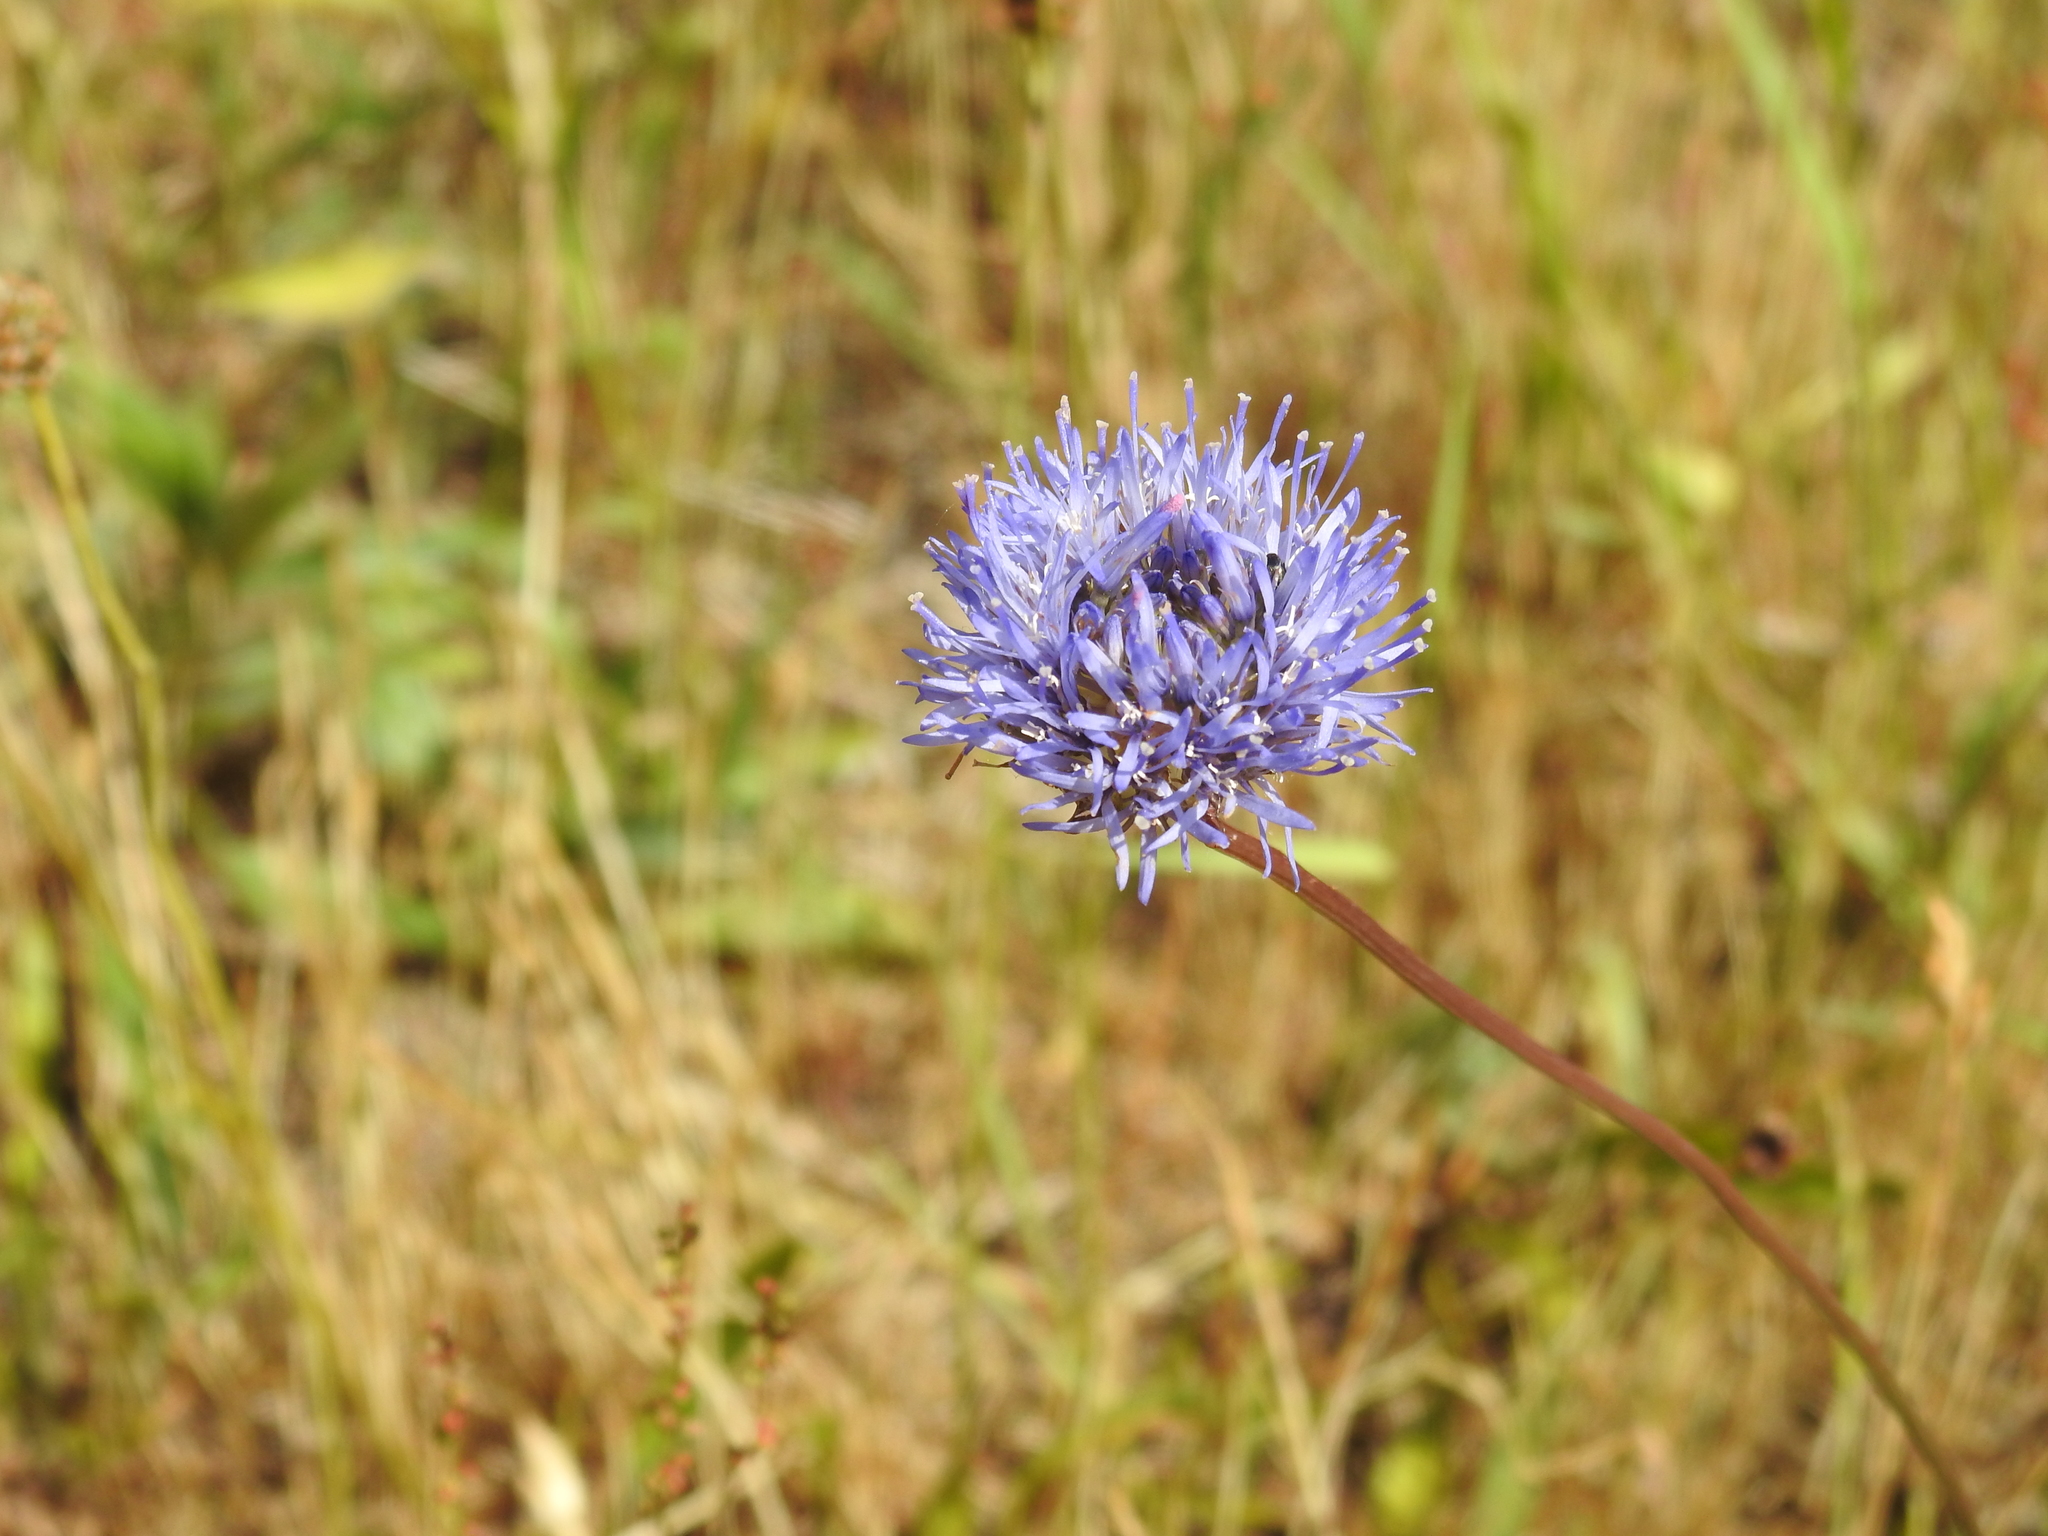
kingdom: Plantae
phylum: Tracheophyta
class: Magnoliopsida
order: Asterales
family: Campanulaceae
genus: Jasione
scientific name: Jasione montana
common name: Sheep's-bit
